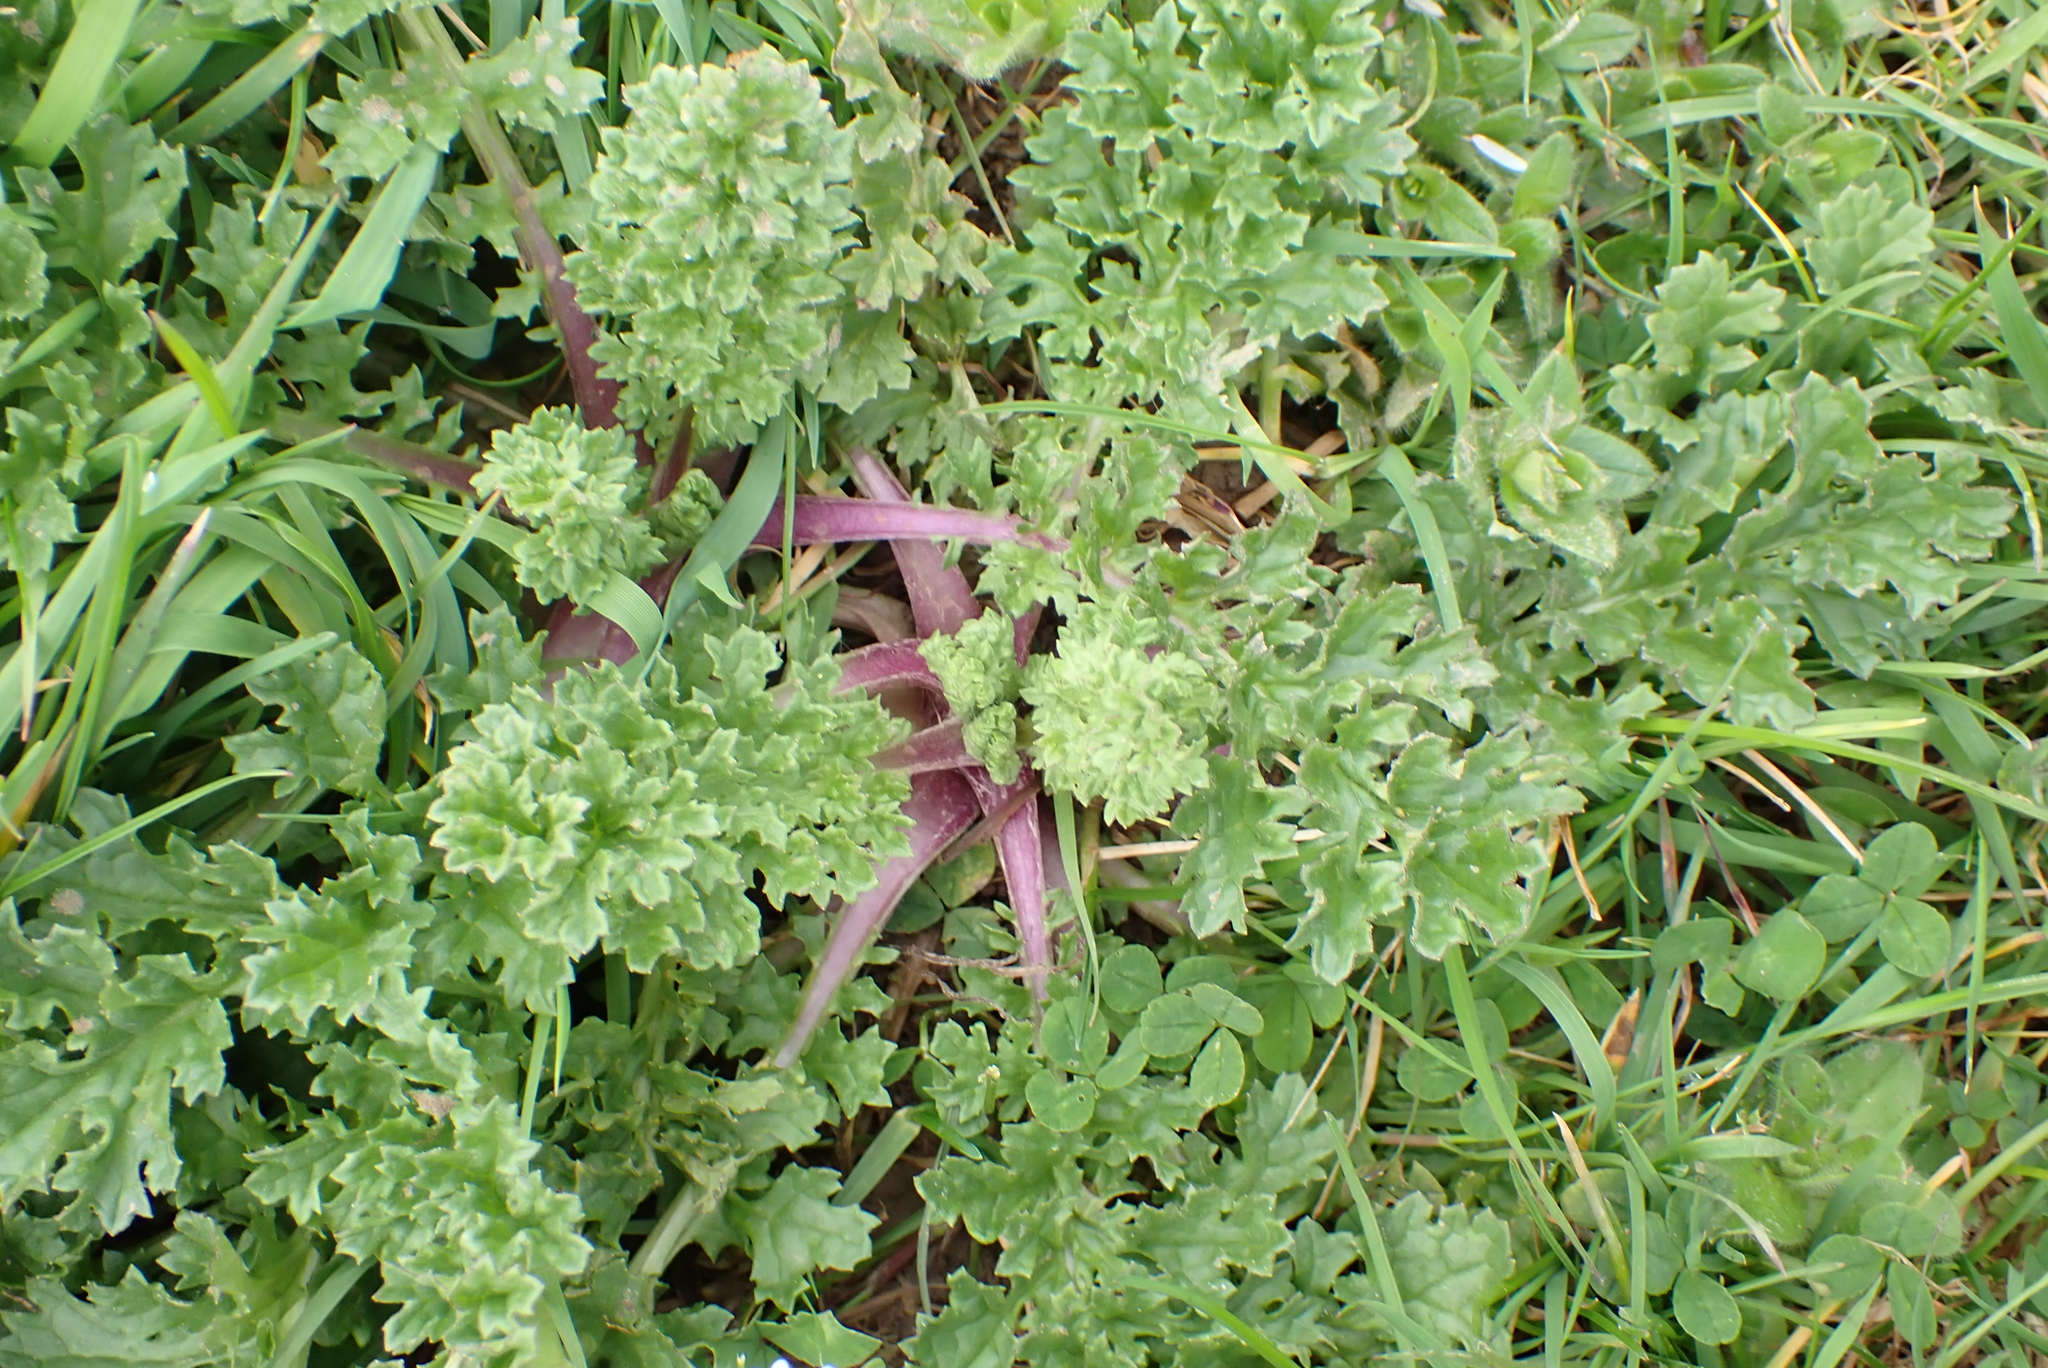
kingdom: Plantae
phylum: Tracheophyta
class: Magnoliopsida
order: Asterales
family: Asteraceae
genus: Jacobaea
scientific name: Jacobaea vulgaris
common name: Stinking willie
